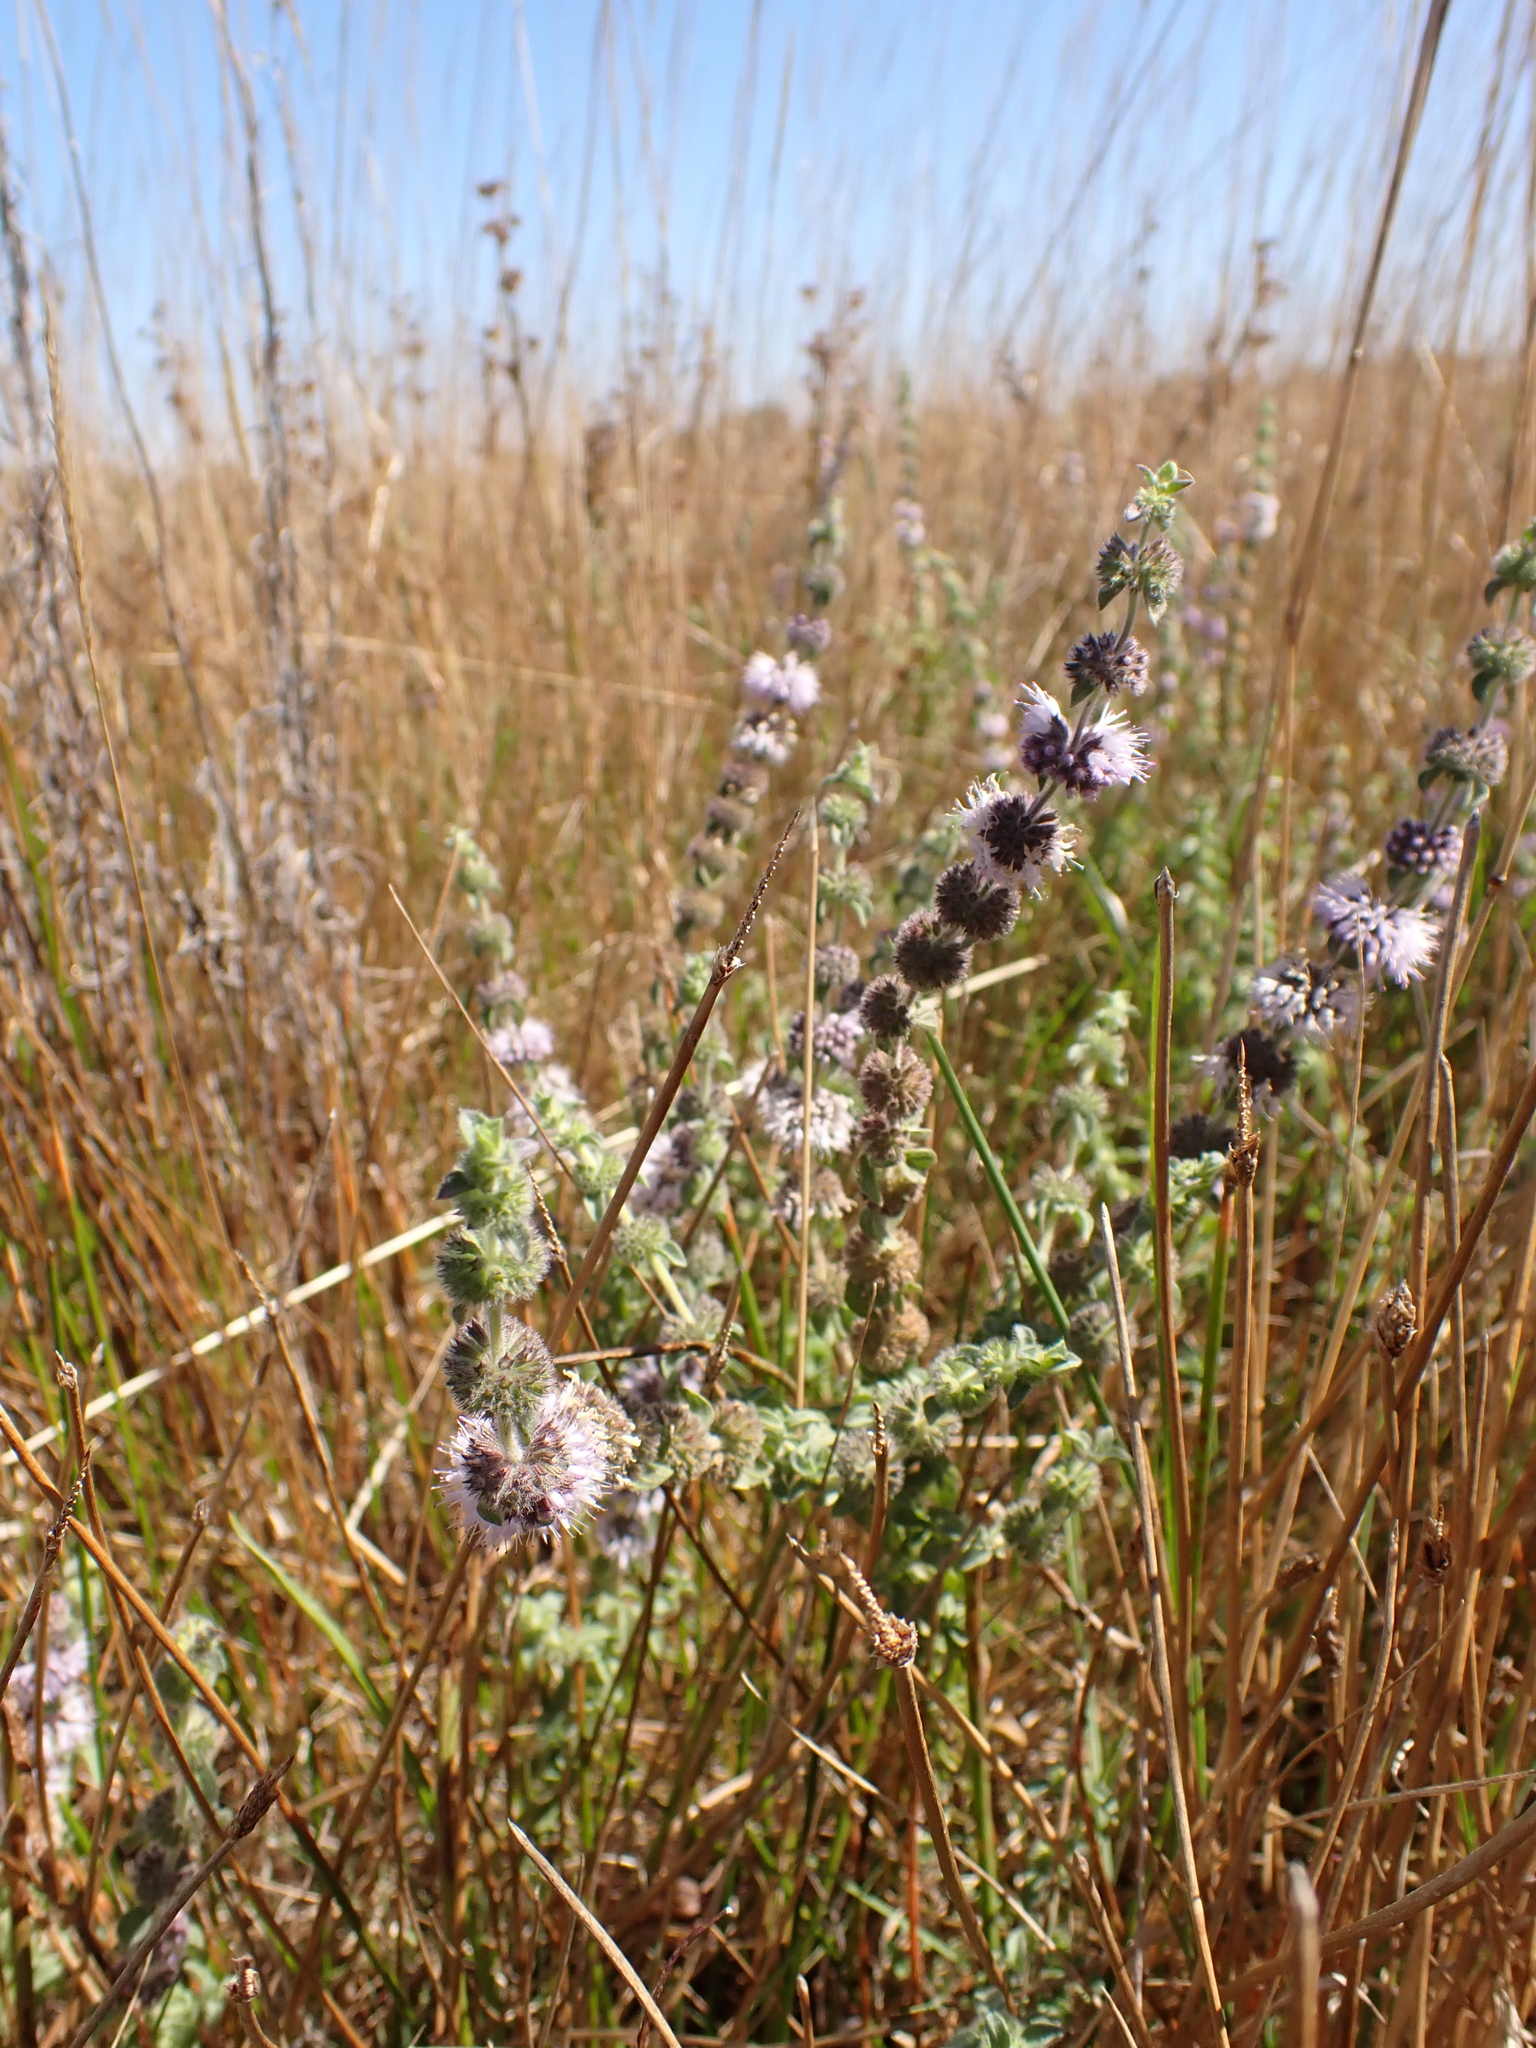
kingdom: Plantae
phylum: Tracheophyta
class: Magnoliopsida
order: Lamiales
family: Lamiaceae
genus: Mentha
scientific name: Mentha pulegium
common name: Pennyroyal
